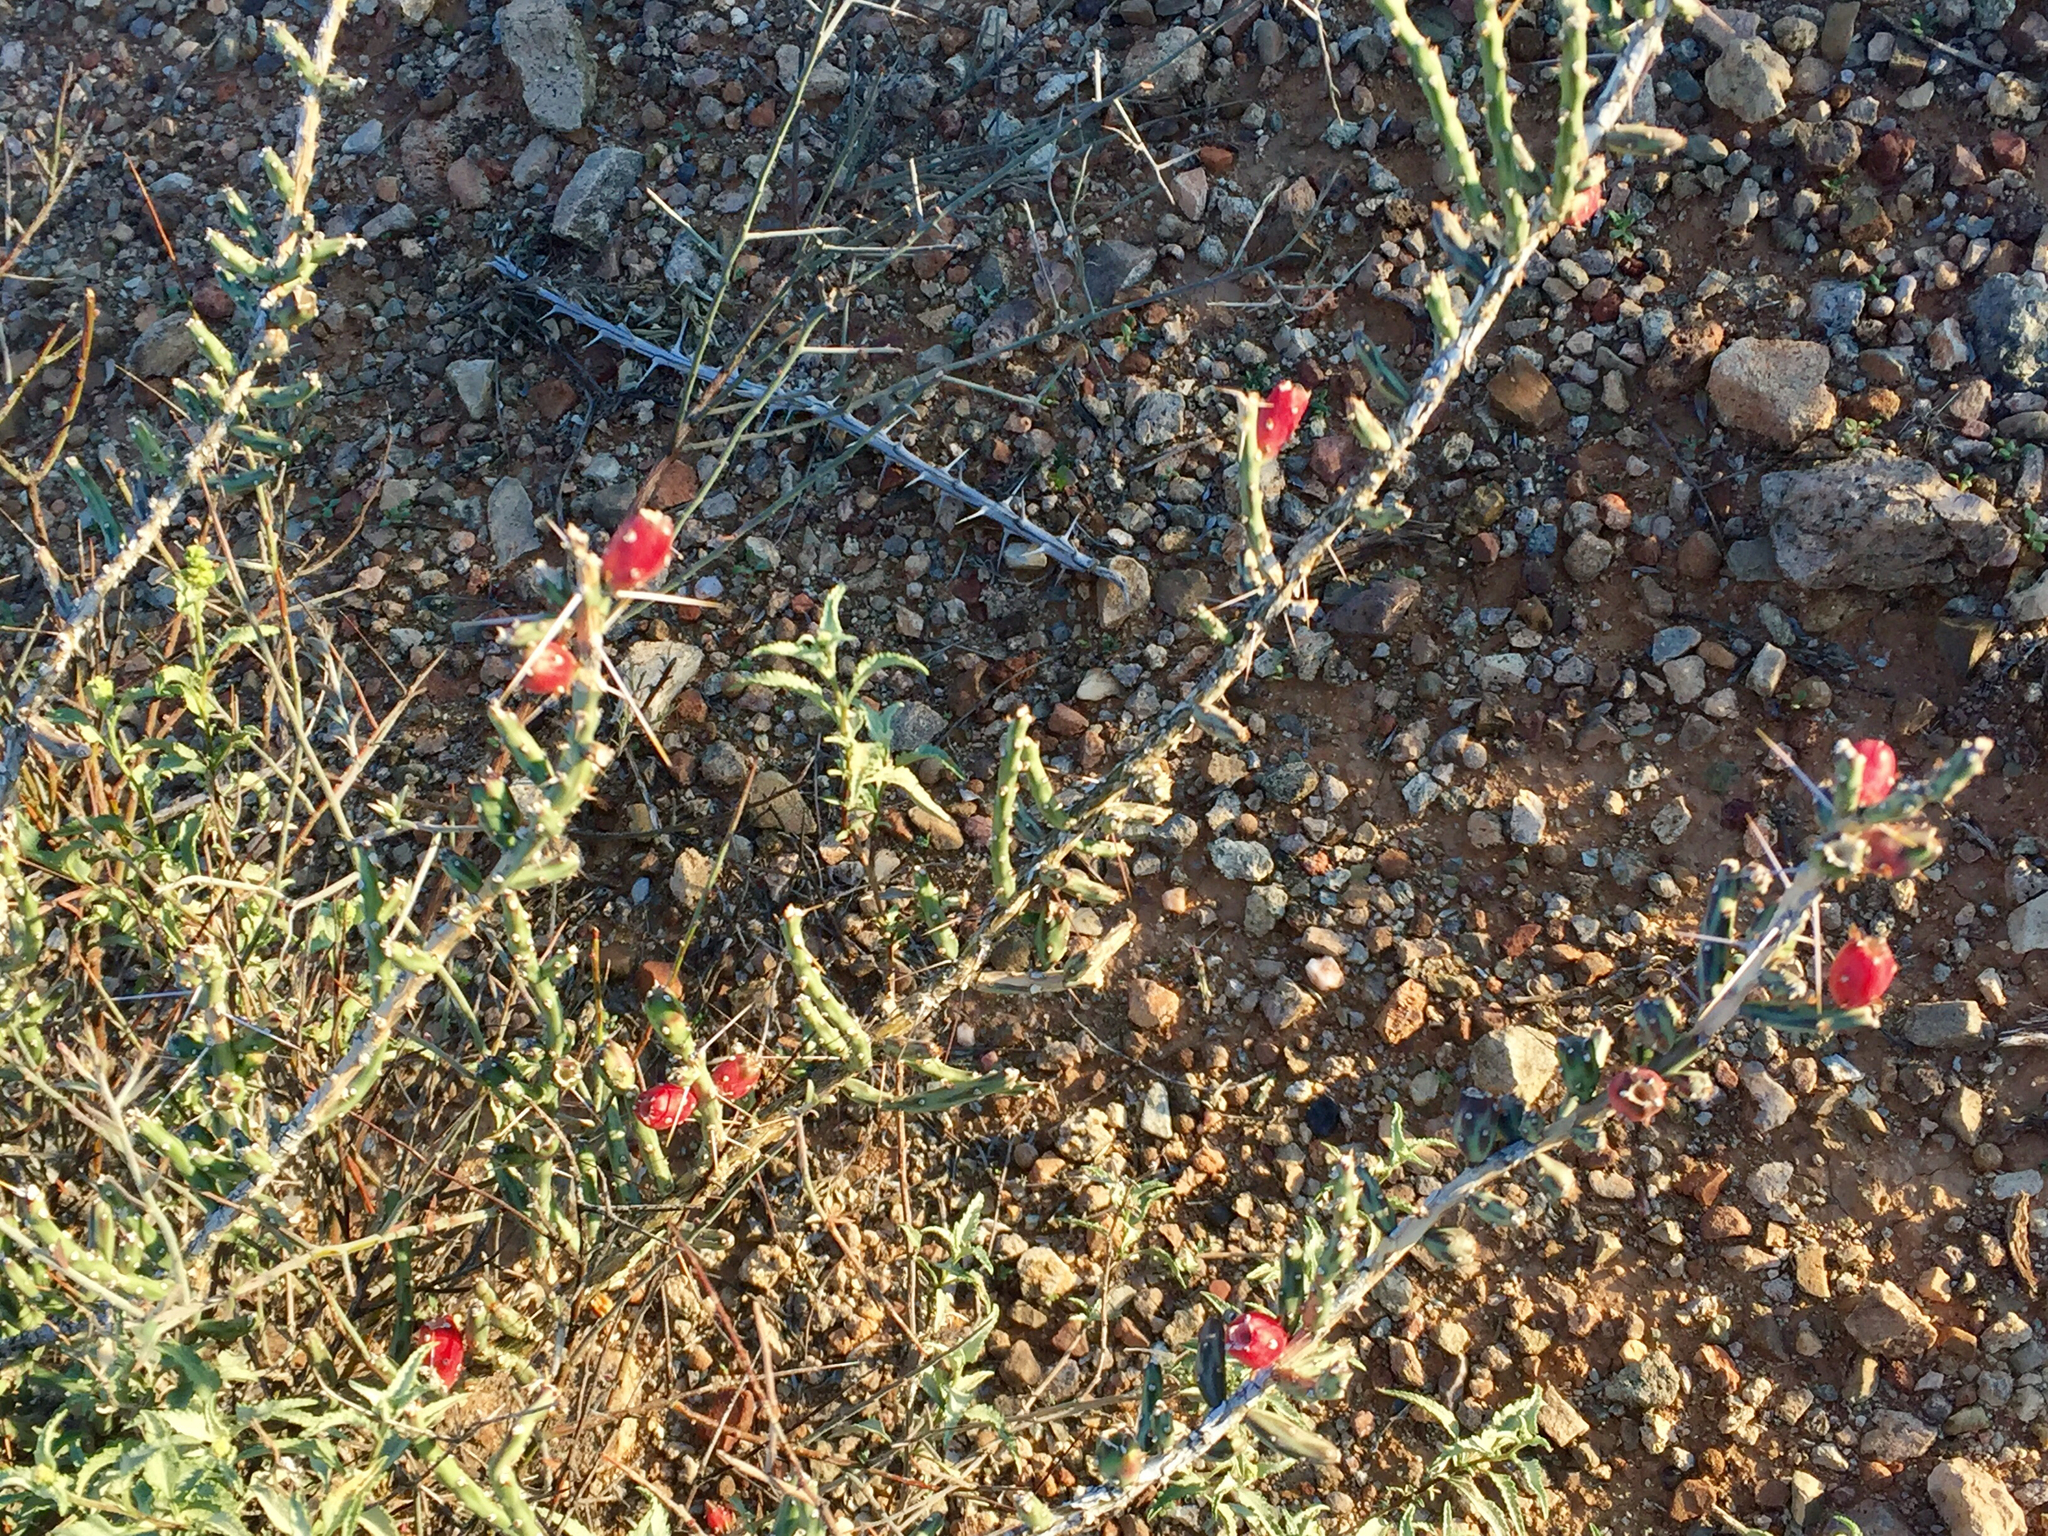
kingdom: Plantae
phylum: Tracheophyta
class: Magnoliopsida
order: Caryophyllales
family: Cactaceae
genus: Cylindropuntia
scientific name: Cylindropuntia leptocaulis
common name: Christmas cactus
